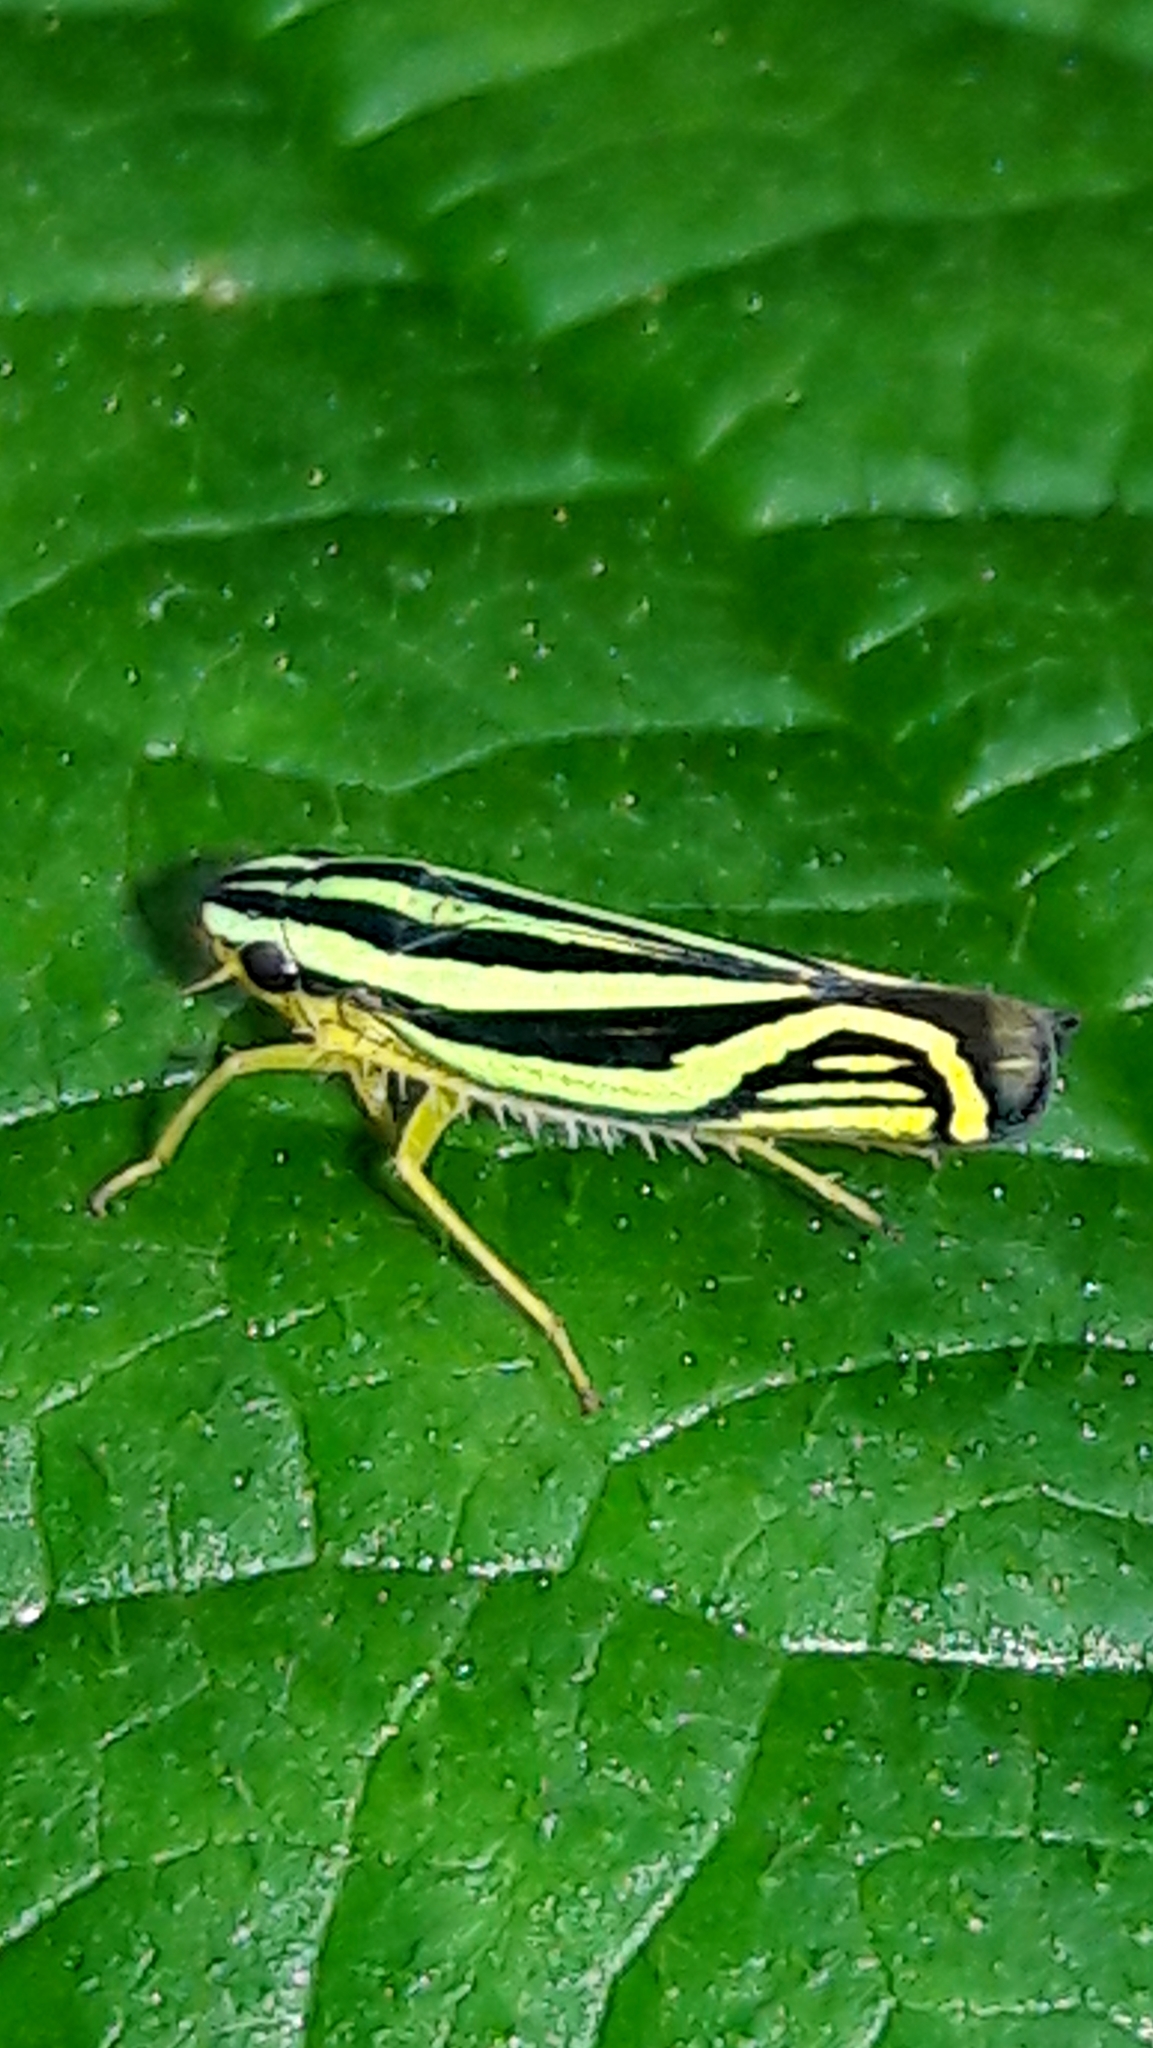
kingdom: Animalia
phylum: Arthropoda
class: Insecta
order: Hemiptera
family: Cicadellidae
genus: Sibovia
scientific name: Sibovia sagata
